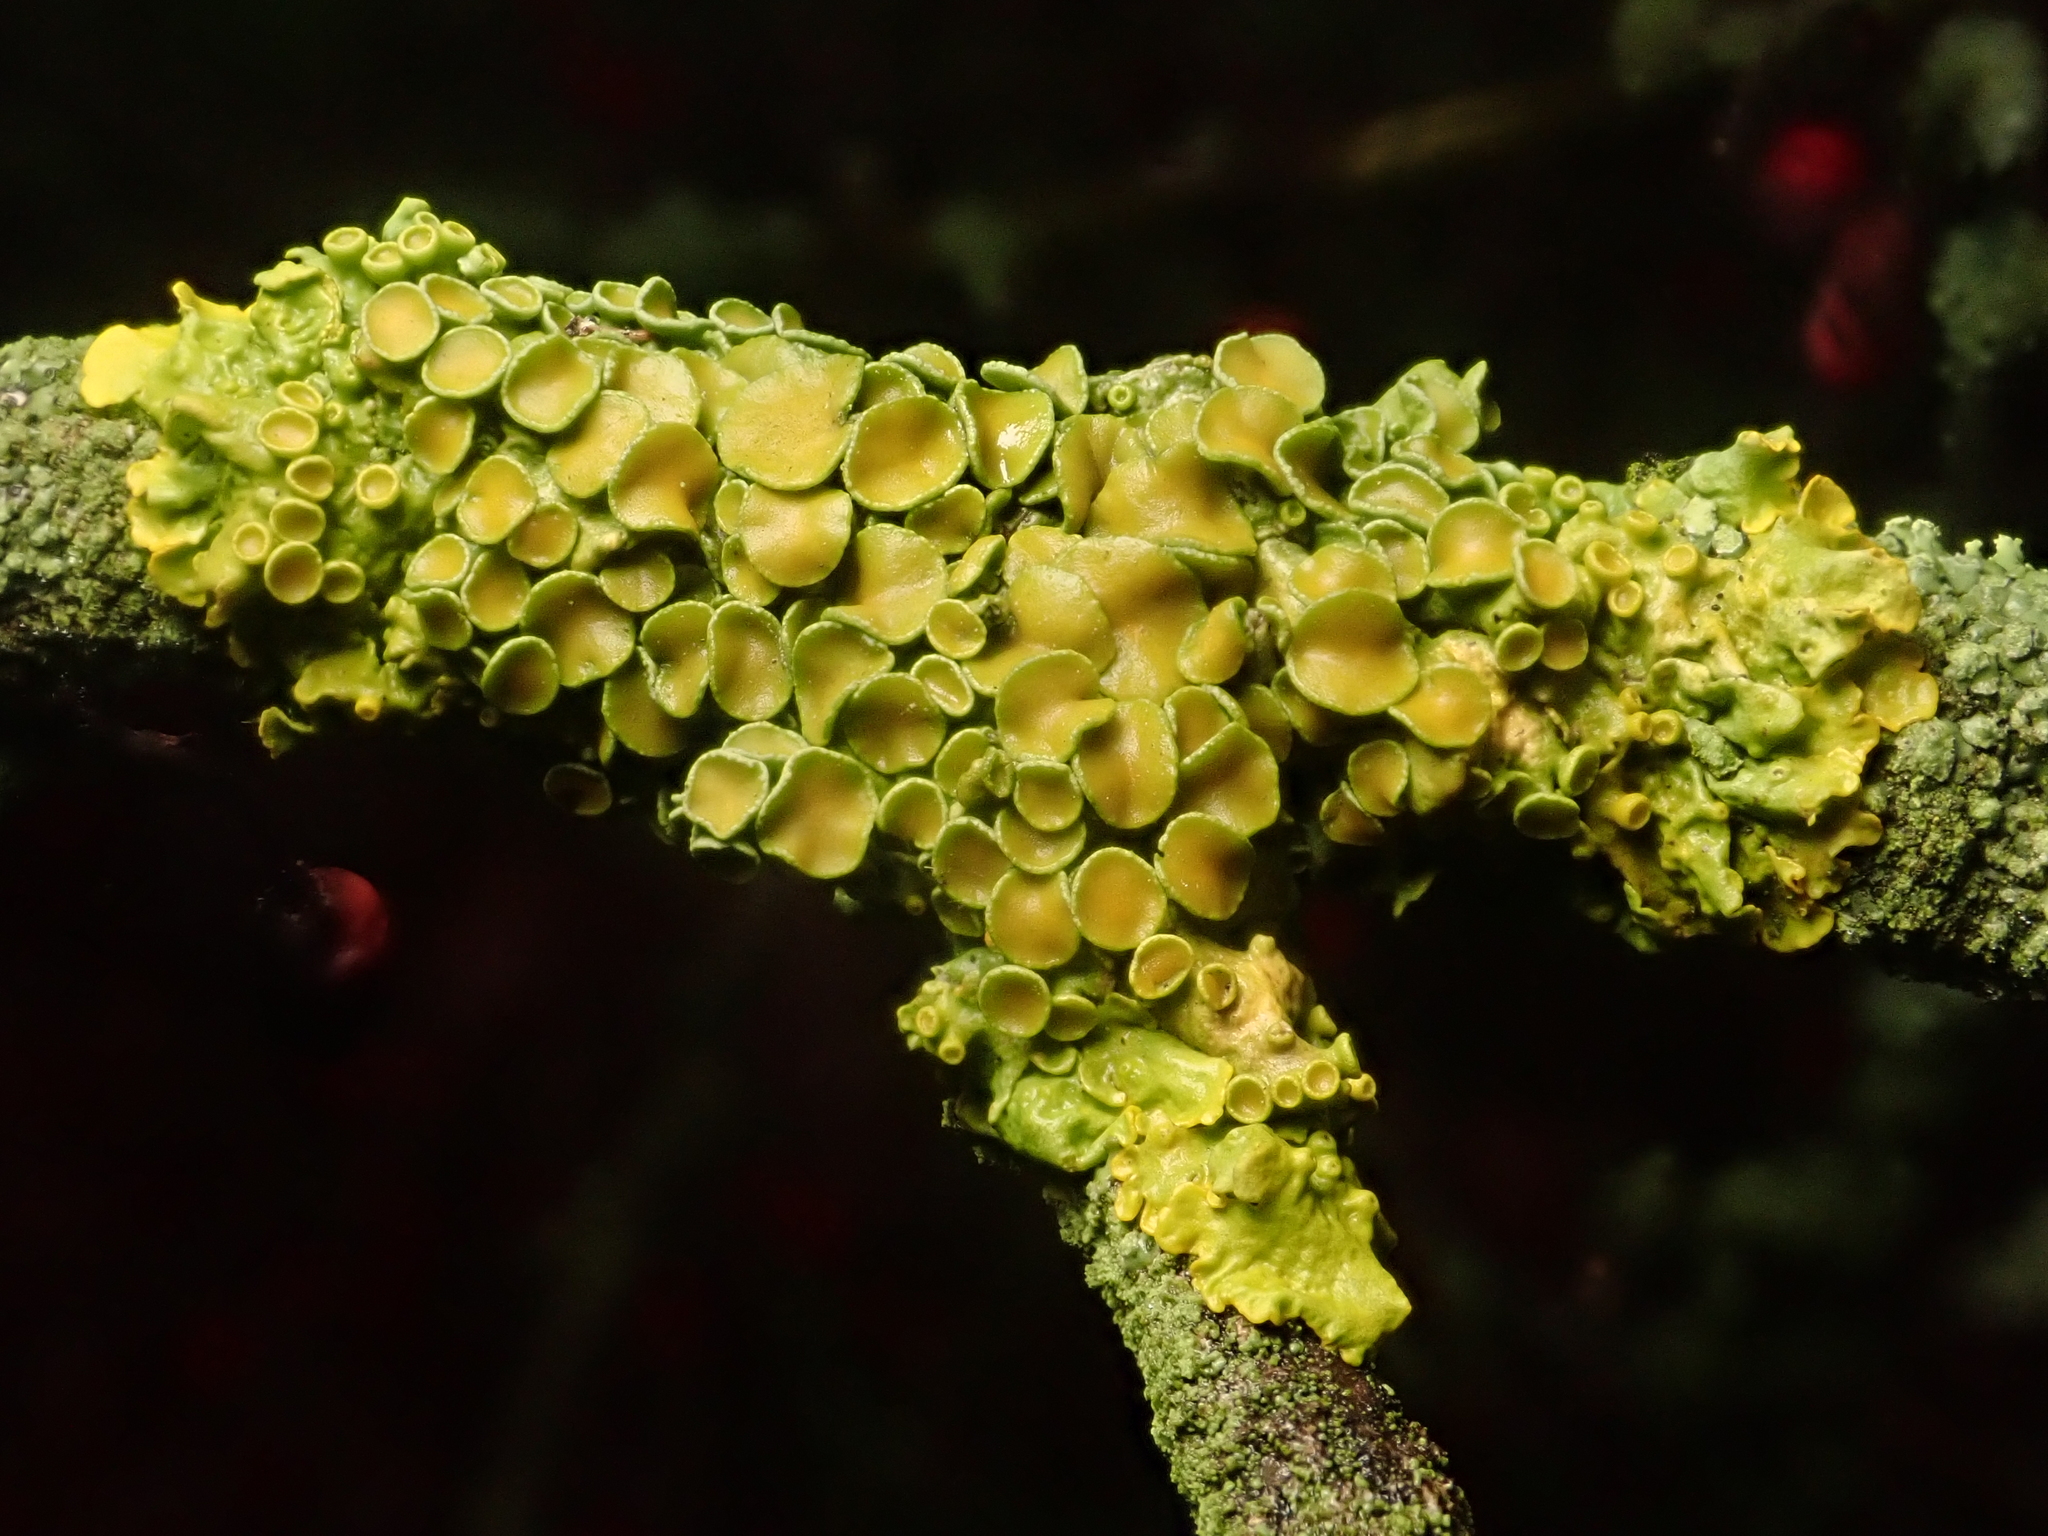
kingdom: Fungi
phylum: Ascomycota
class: Lecanoromycetes
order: Teloschistales
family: Teloschistaceae
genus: Xanthoria
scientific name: Xanthoria parietina
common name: Common orange lichen
